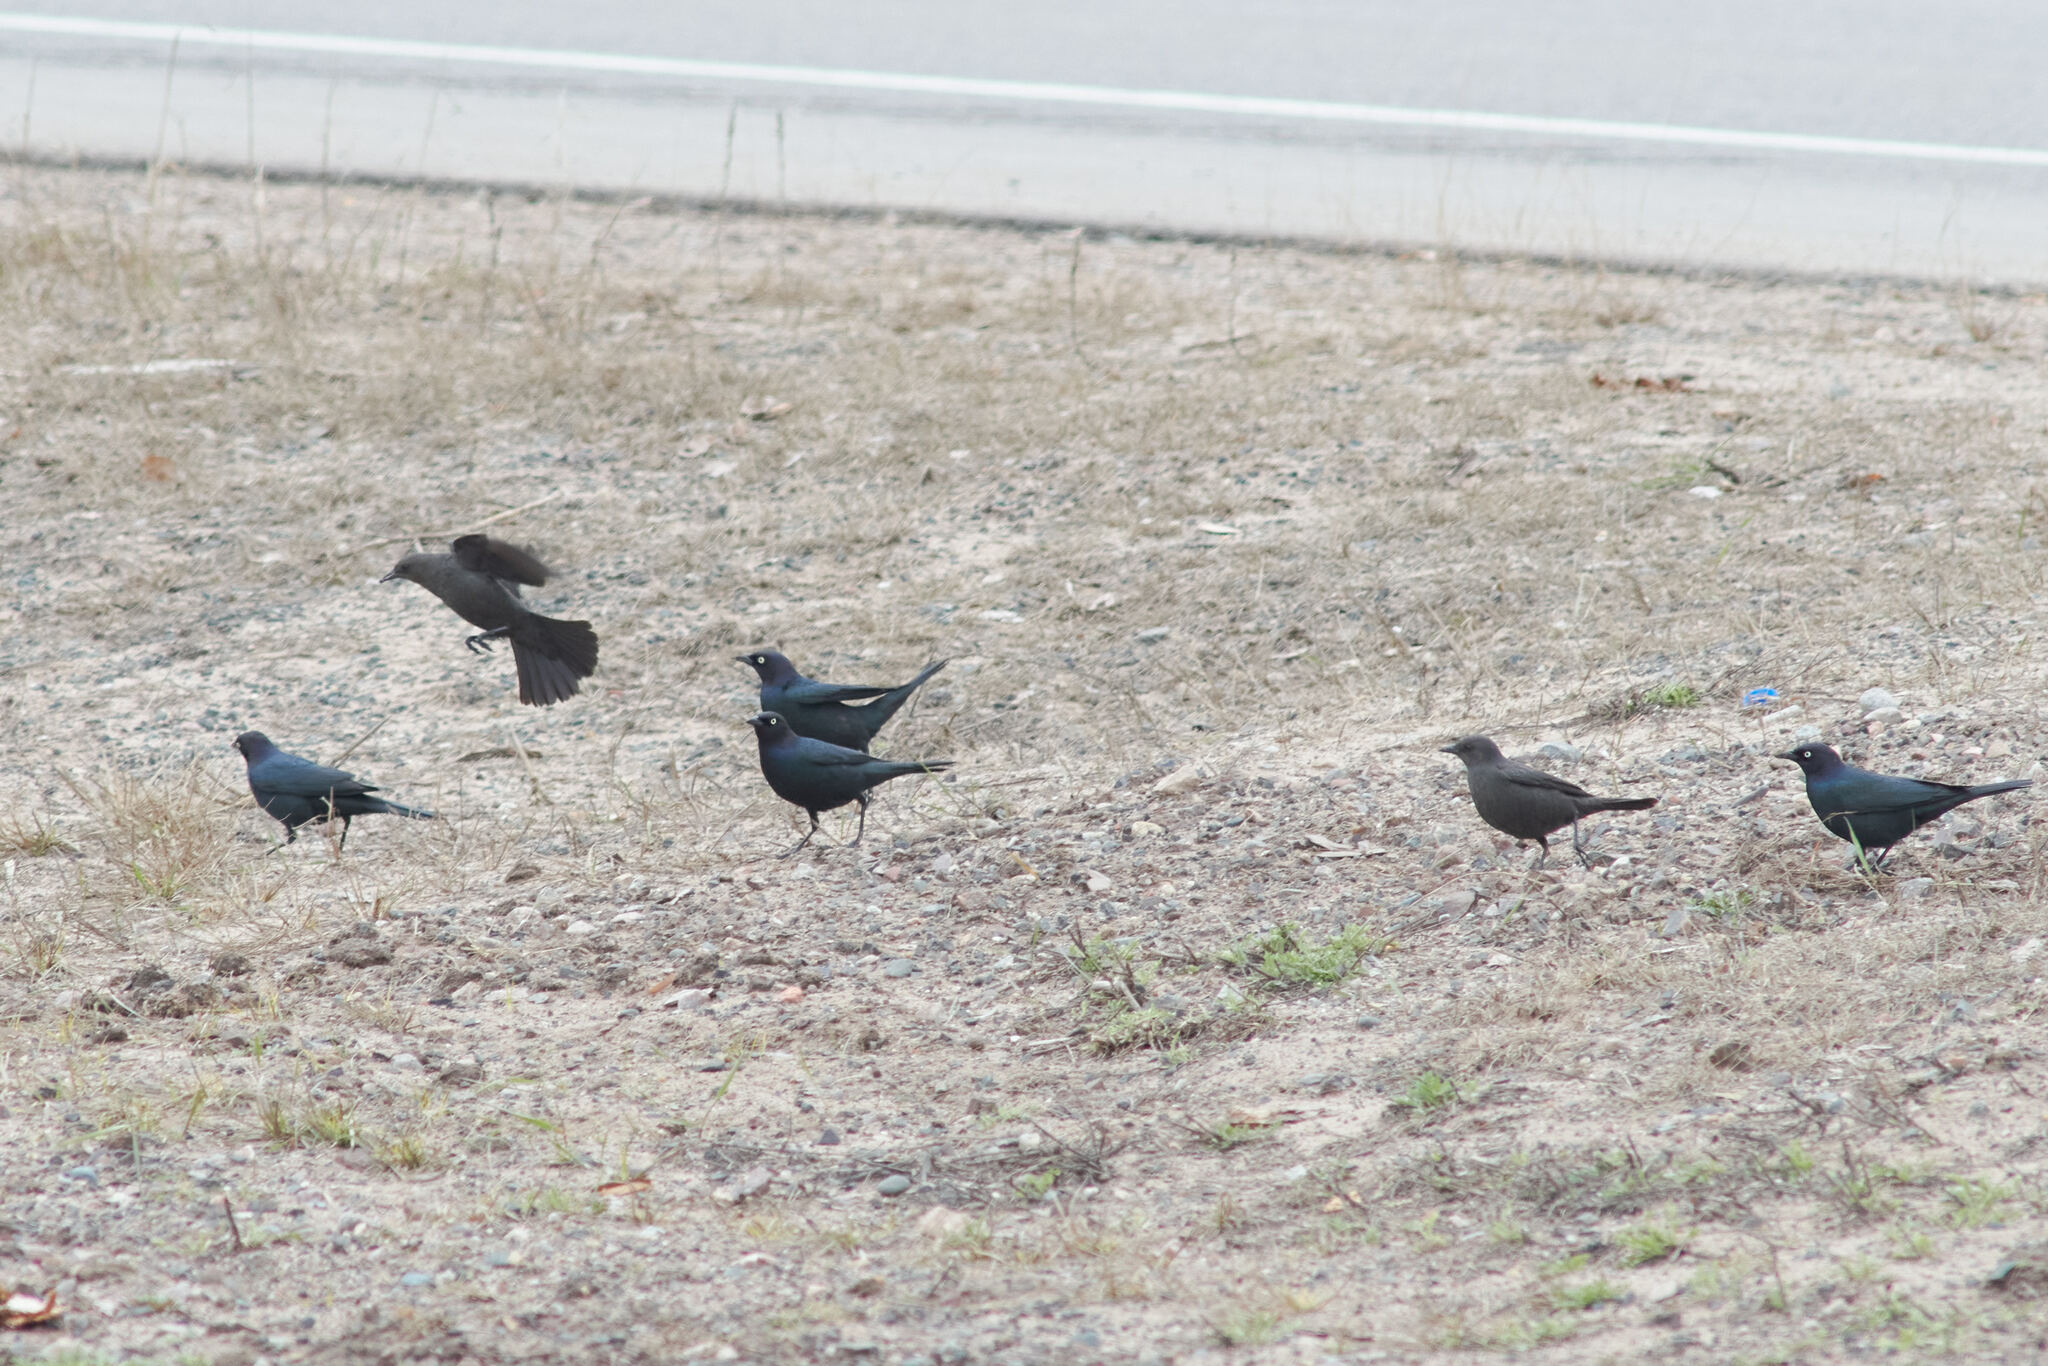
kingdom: Animalia
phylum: Chordata
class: Aves
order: Passeriformes
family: Icteridae
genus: Euphagus
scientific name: Euphagus cyanocephalus
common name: Brewer's blackbird
